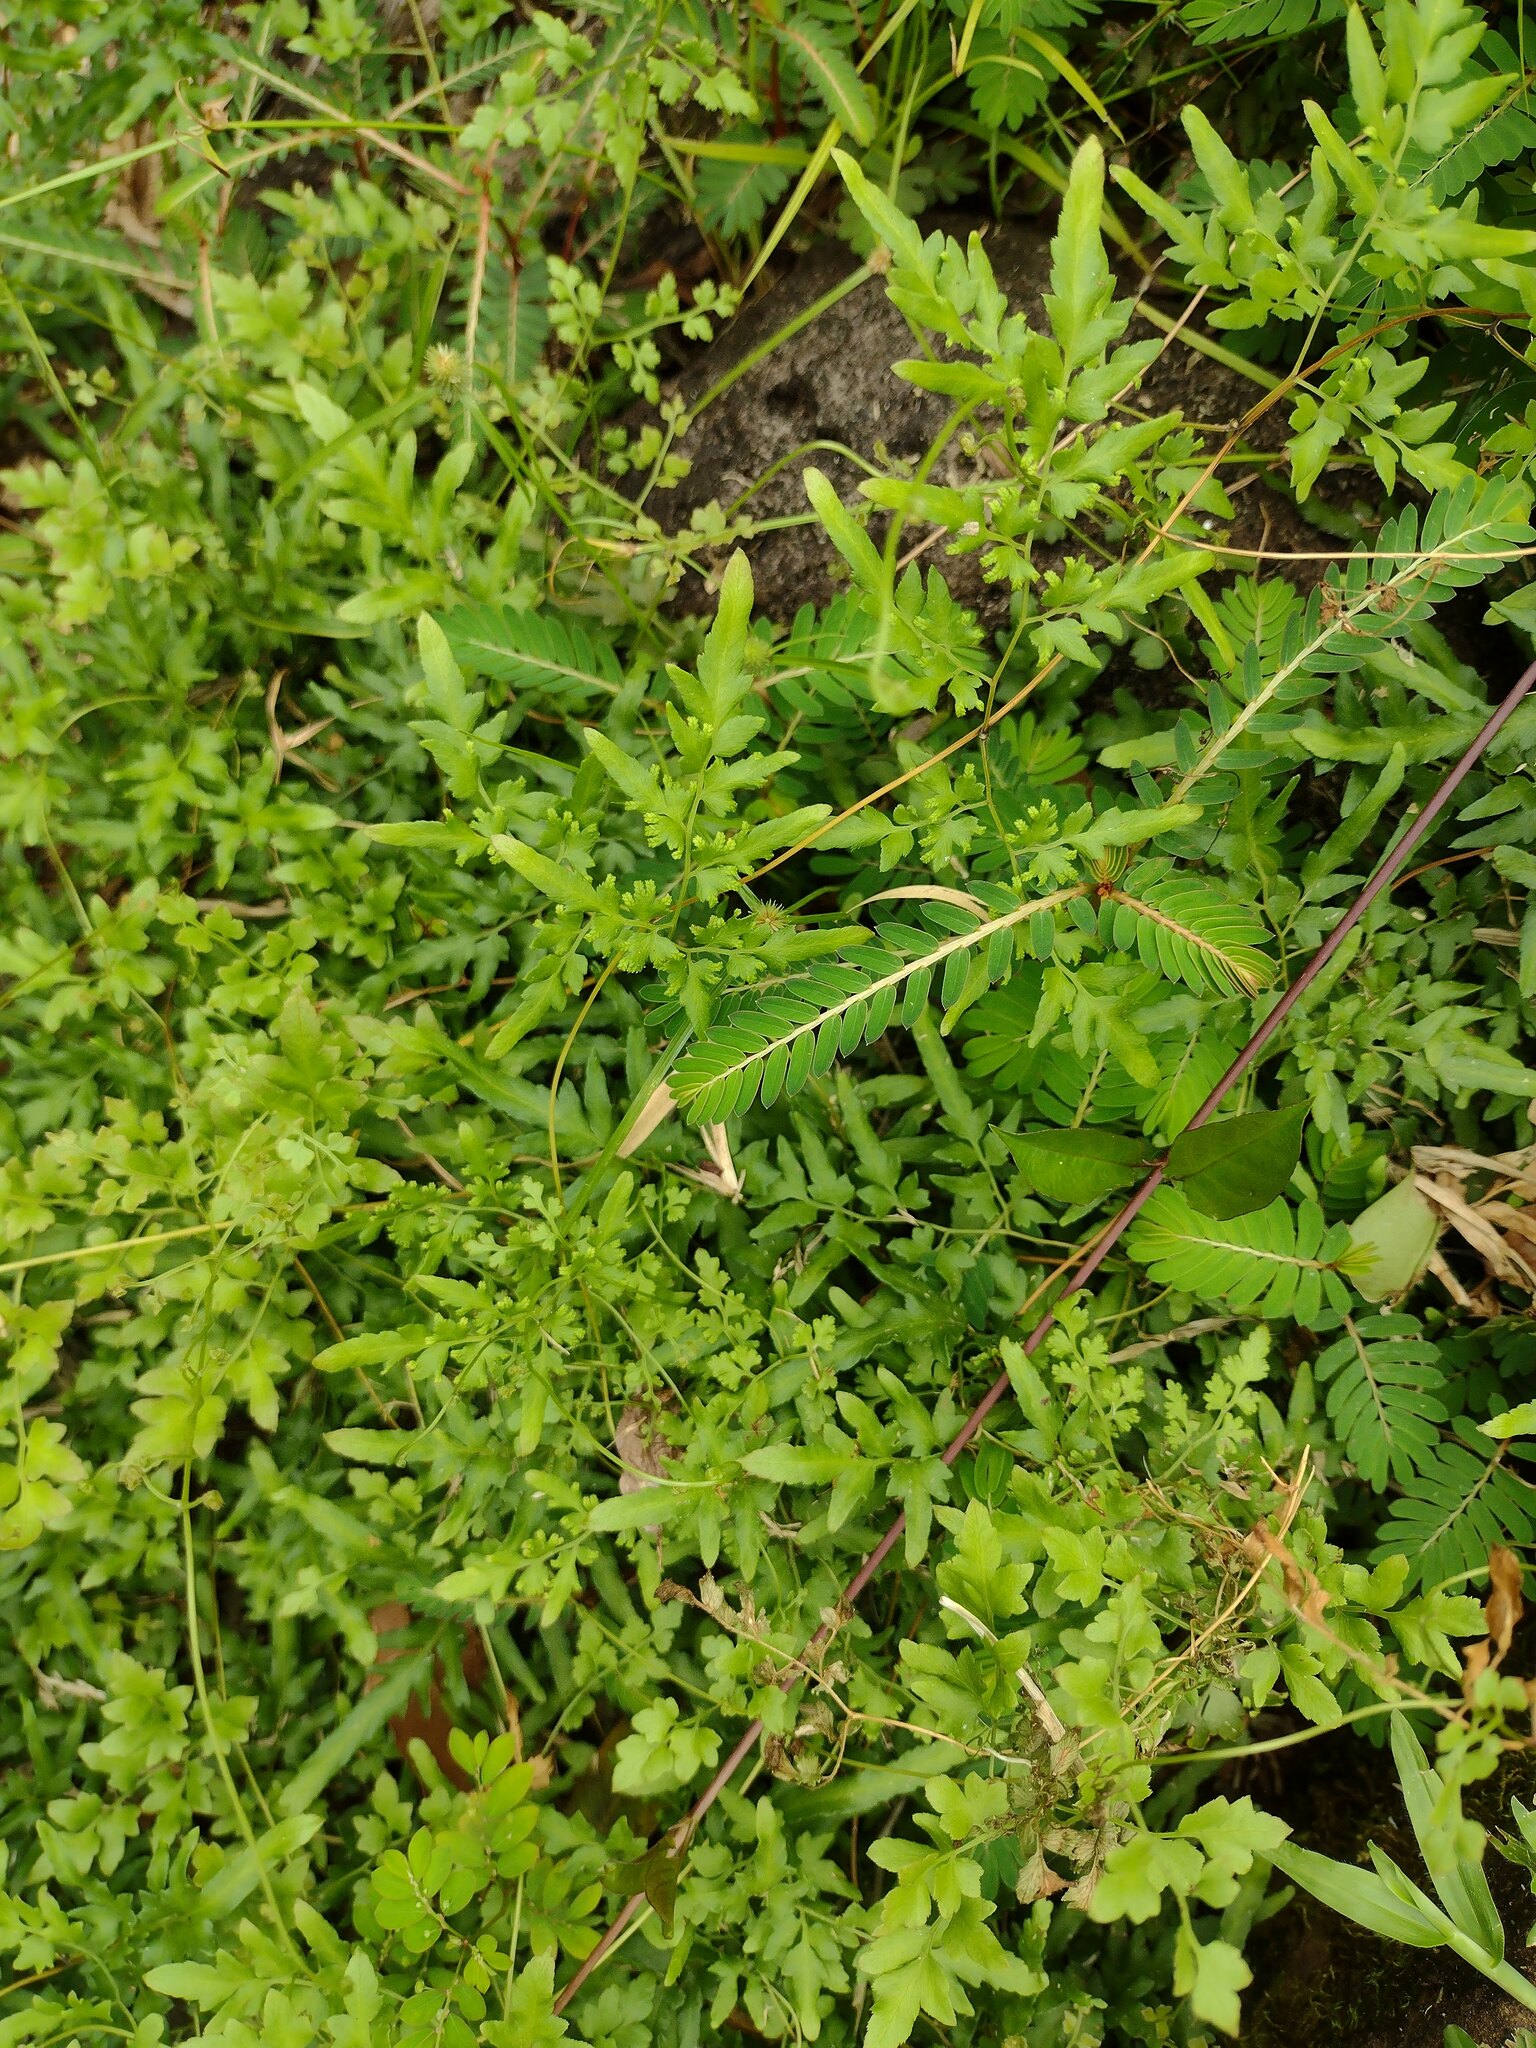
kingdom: Plantae
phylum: Tracheophyta
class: Polypodiopsida
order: Schizaeales
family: Lygodiaceae
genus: Lygodium
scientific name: Lygodium japonicum
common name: Japanese climbing fern
